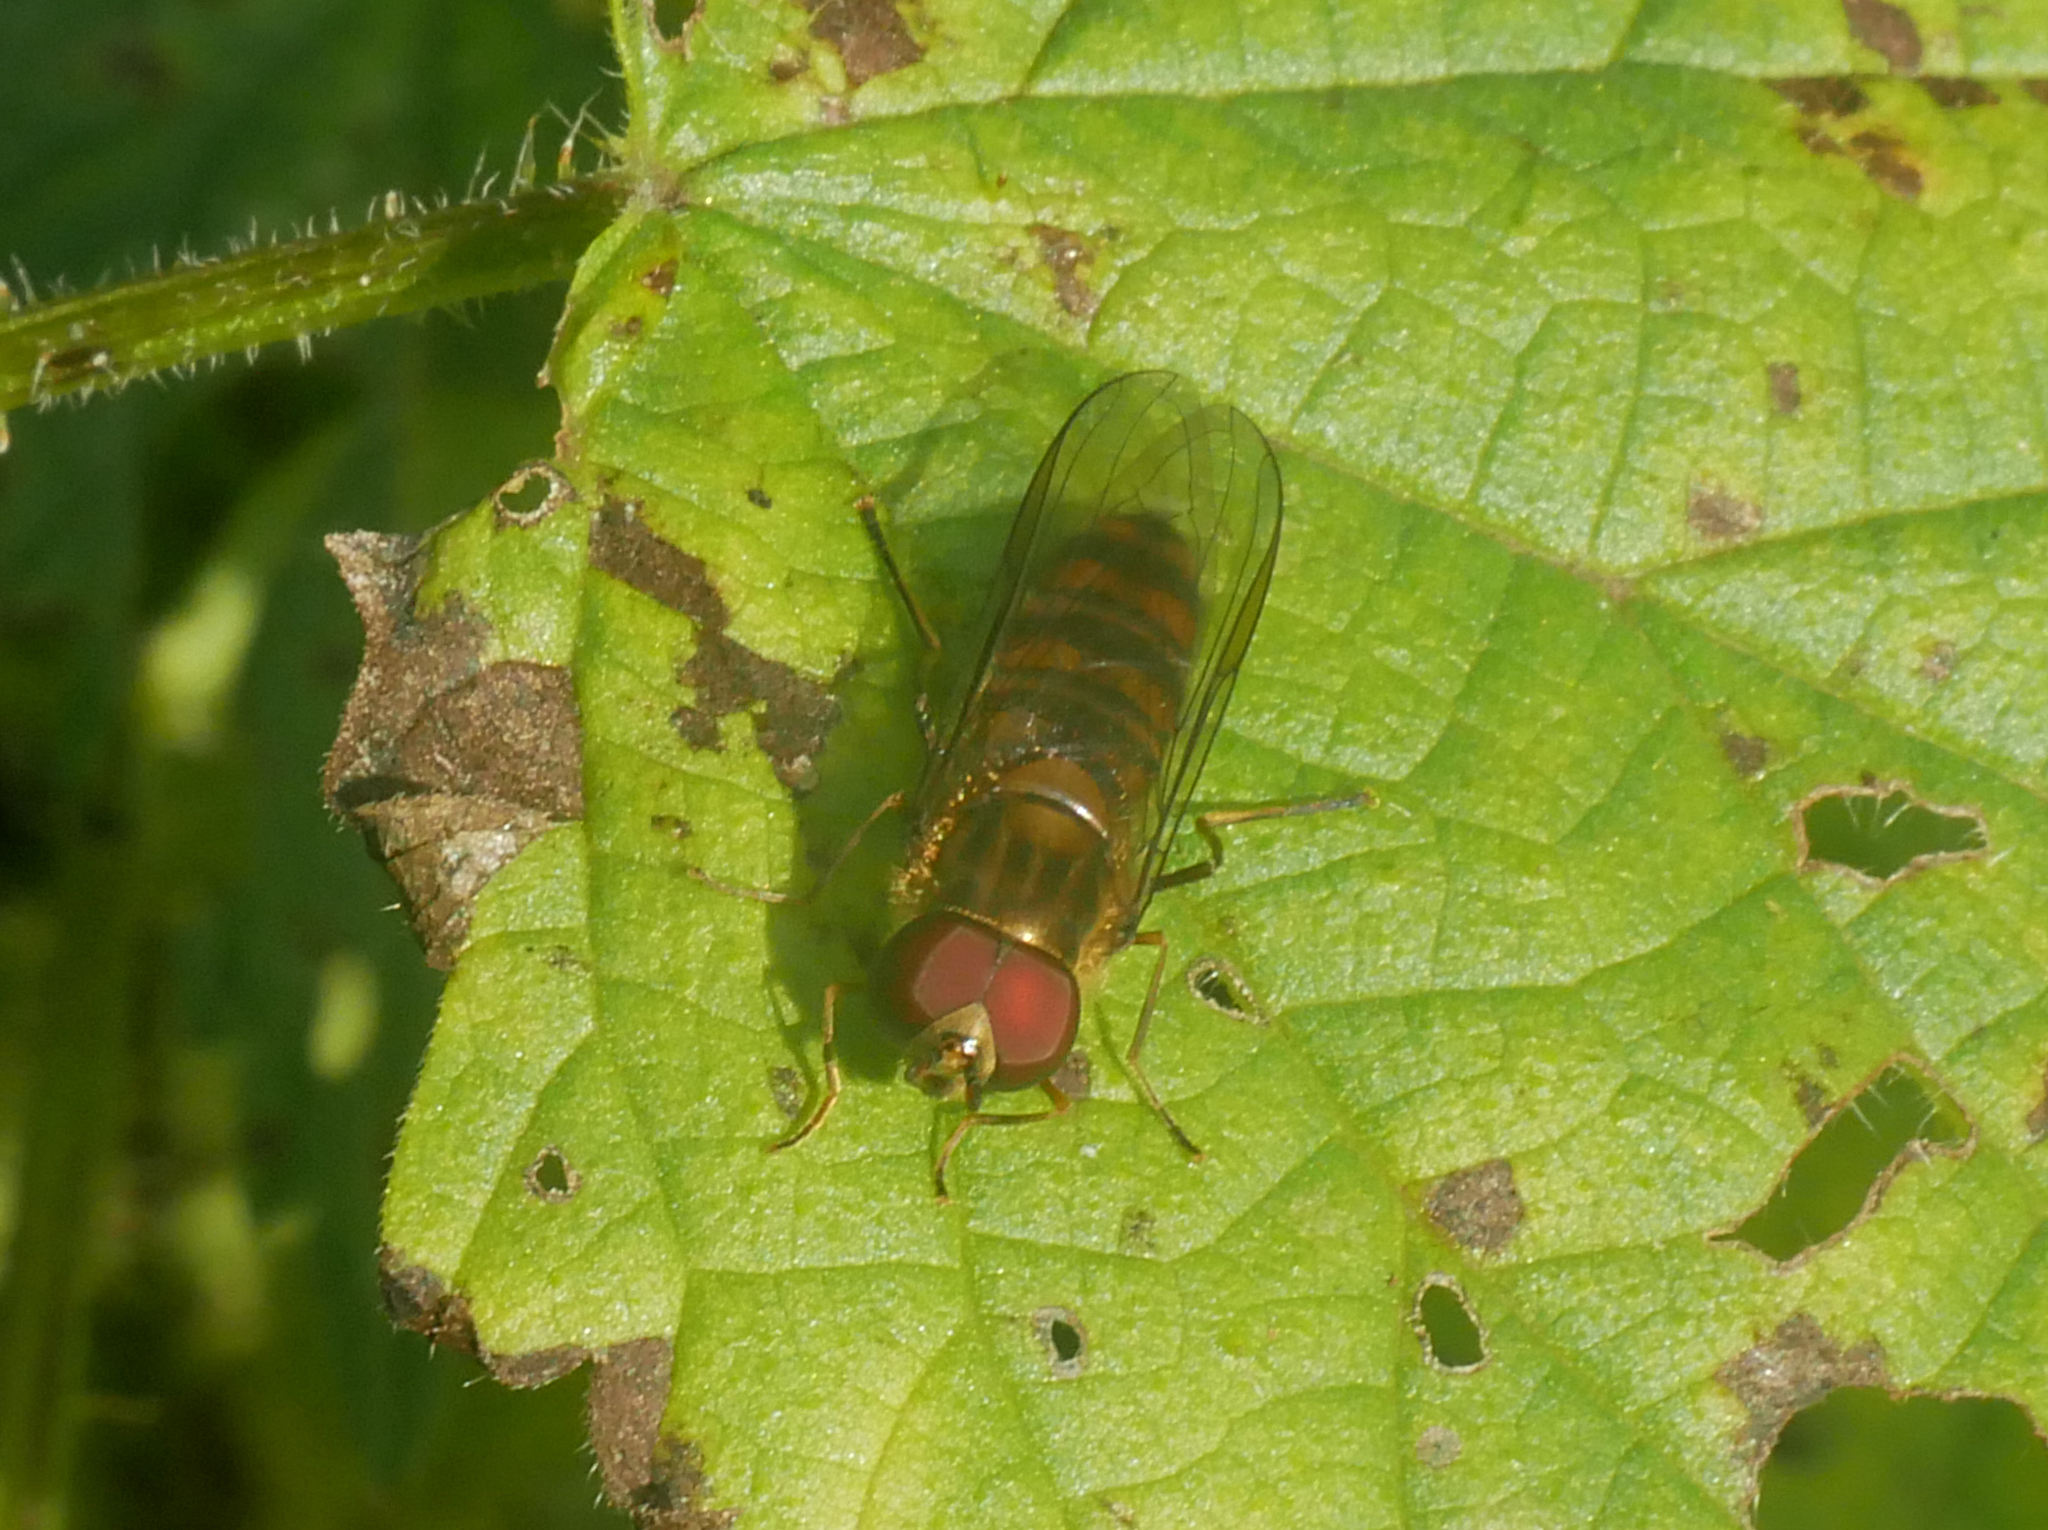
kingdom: Animalia
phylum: Arthropoda
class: Insecta
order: Diptera
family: Syrphidae
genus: Episyrphus
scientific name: Episyrphus balteatus
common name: Marmalade hoverfly
